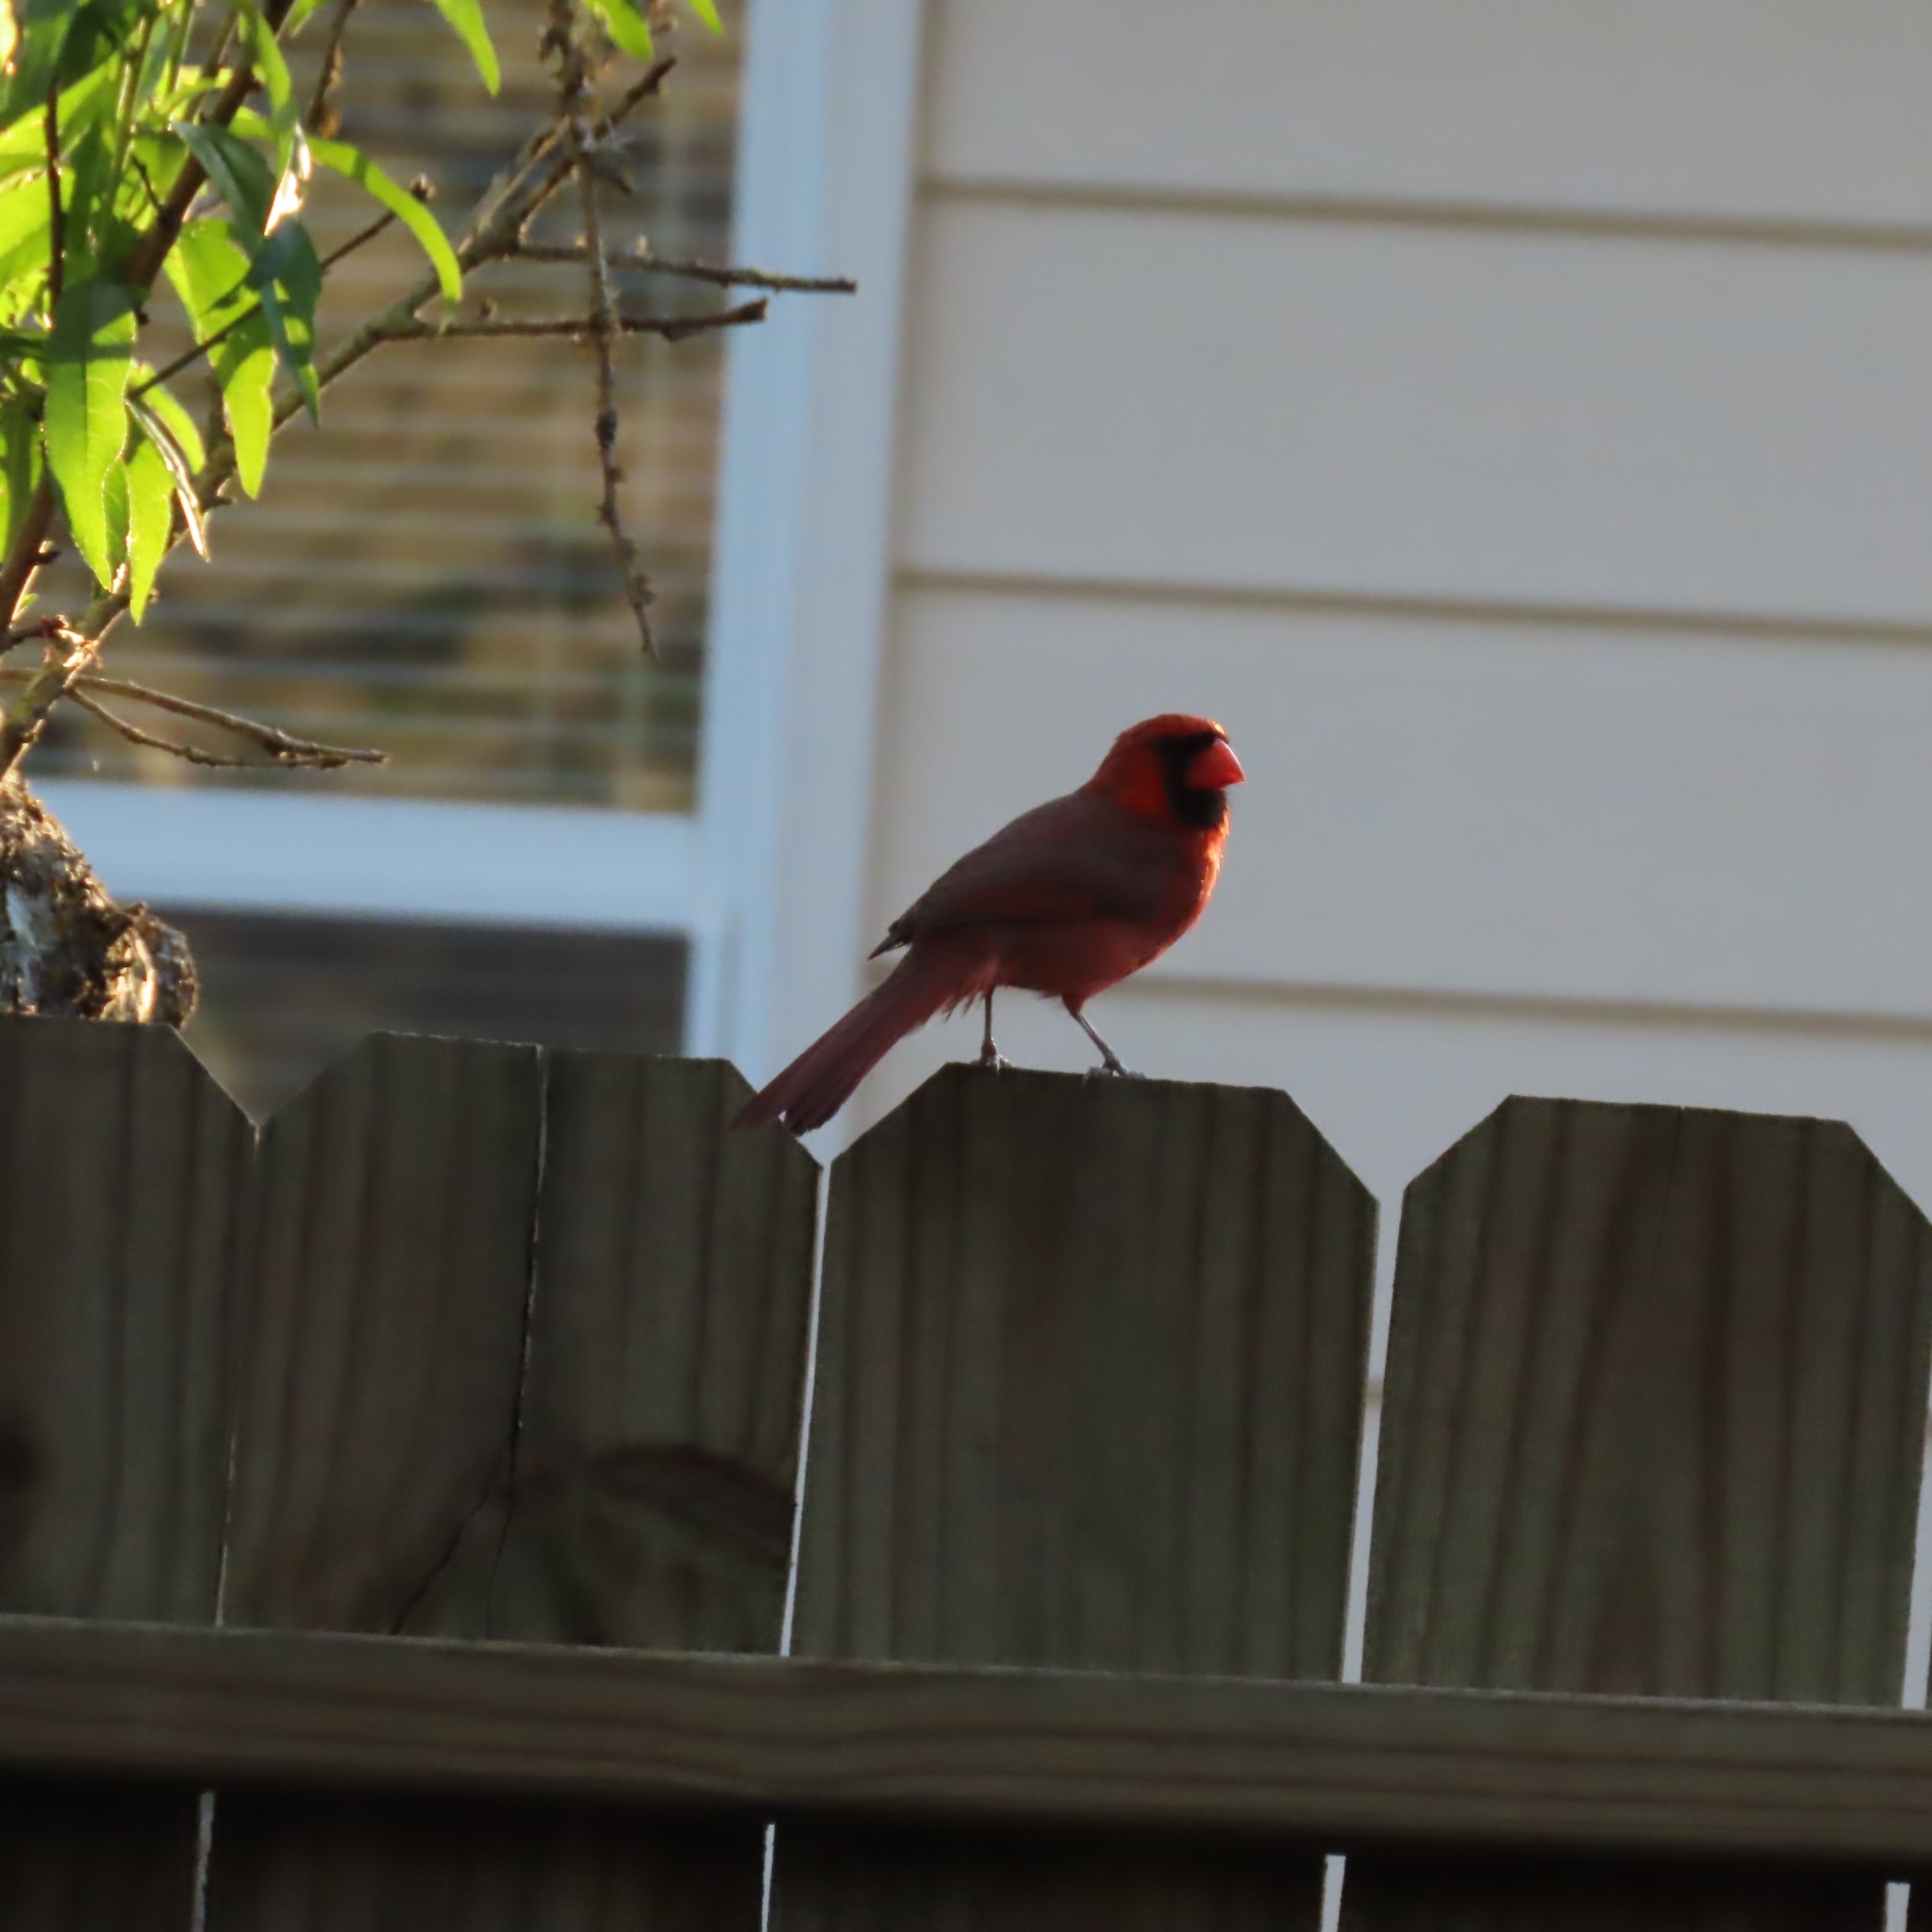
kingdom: Animalia
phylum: Chordata
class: Aves
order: Passeriformes
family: Cardinalidae
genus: Cardinalis
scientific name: Cardinalis cardinalis
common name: Northern cardinal
